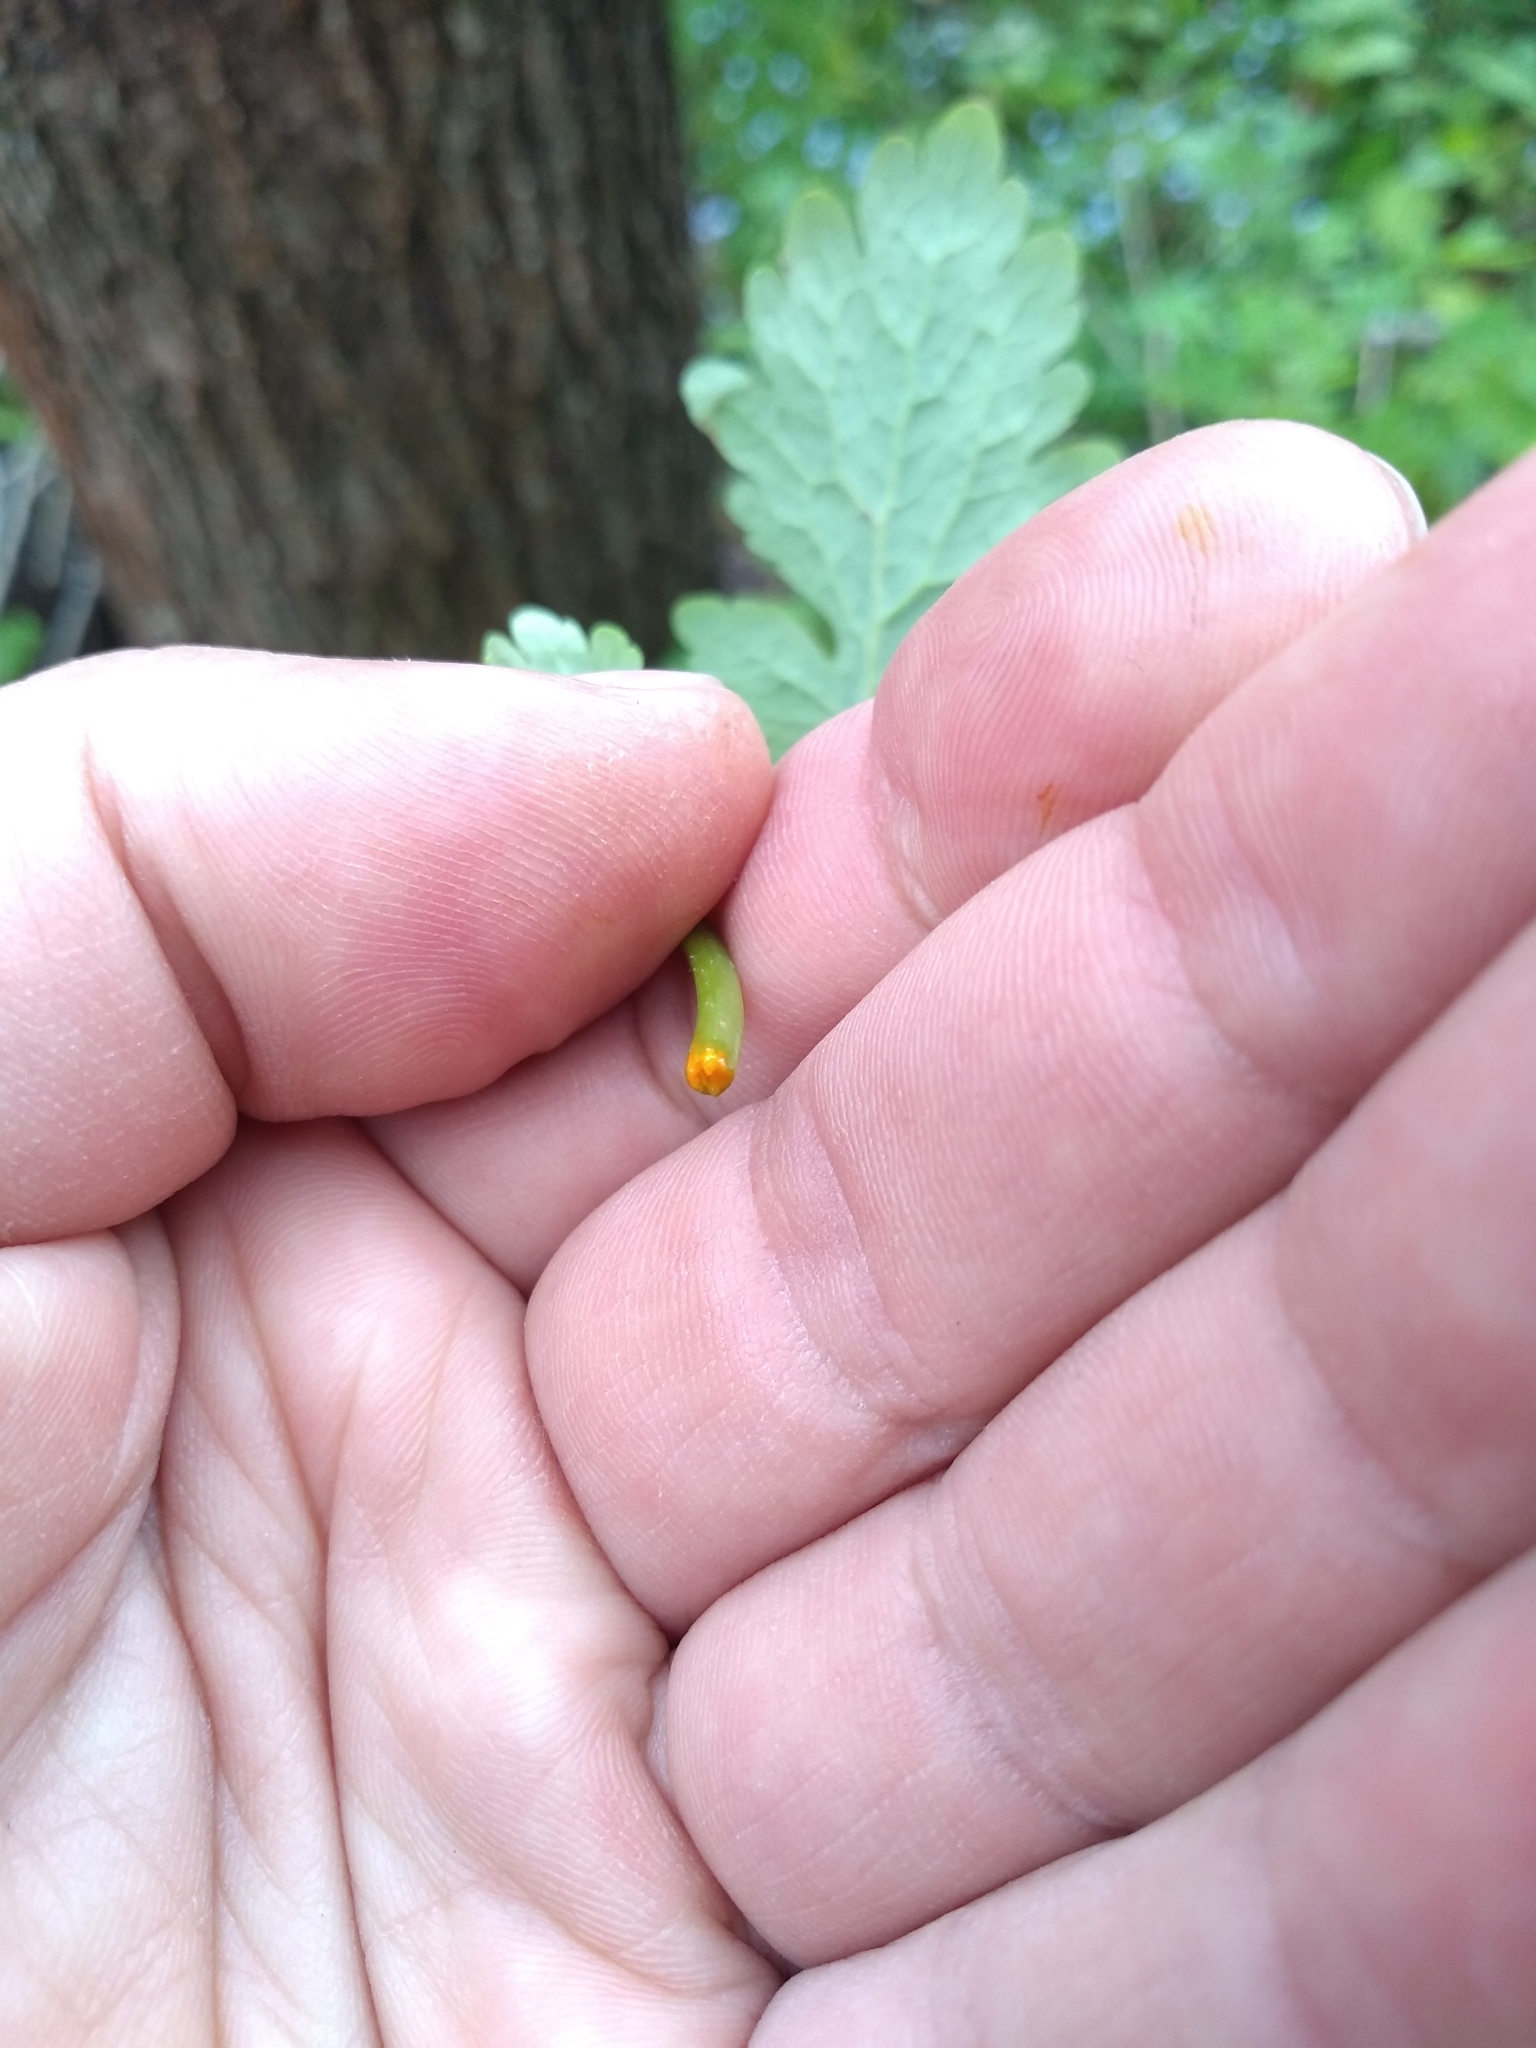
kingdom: Plantae
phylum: Tracheophyta
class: Magnoliopsida
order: Ranunculales
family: Papaveraceae
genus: Chelidonium
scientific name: Chelidonium majus
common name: Greater celandine
